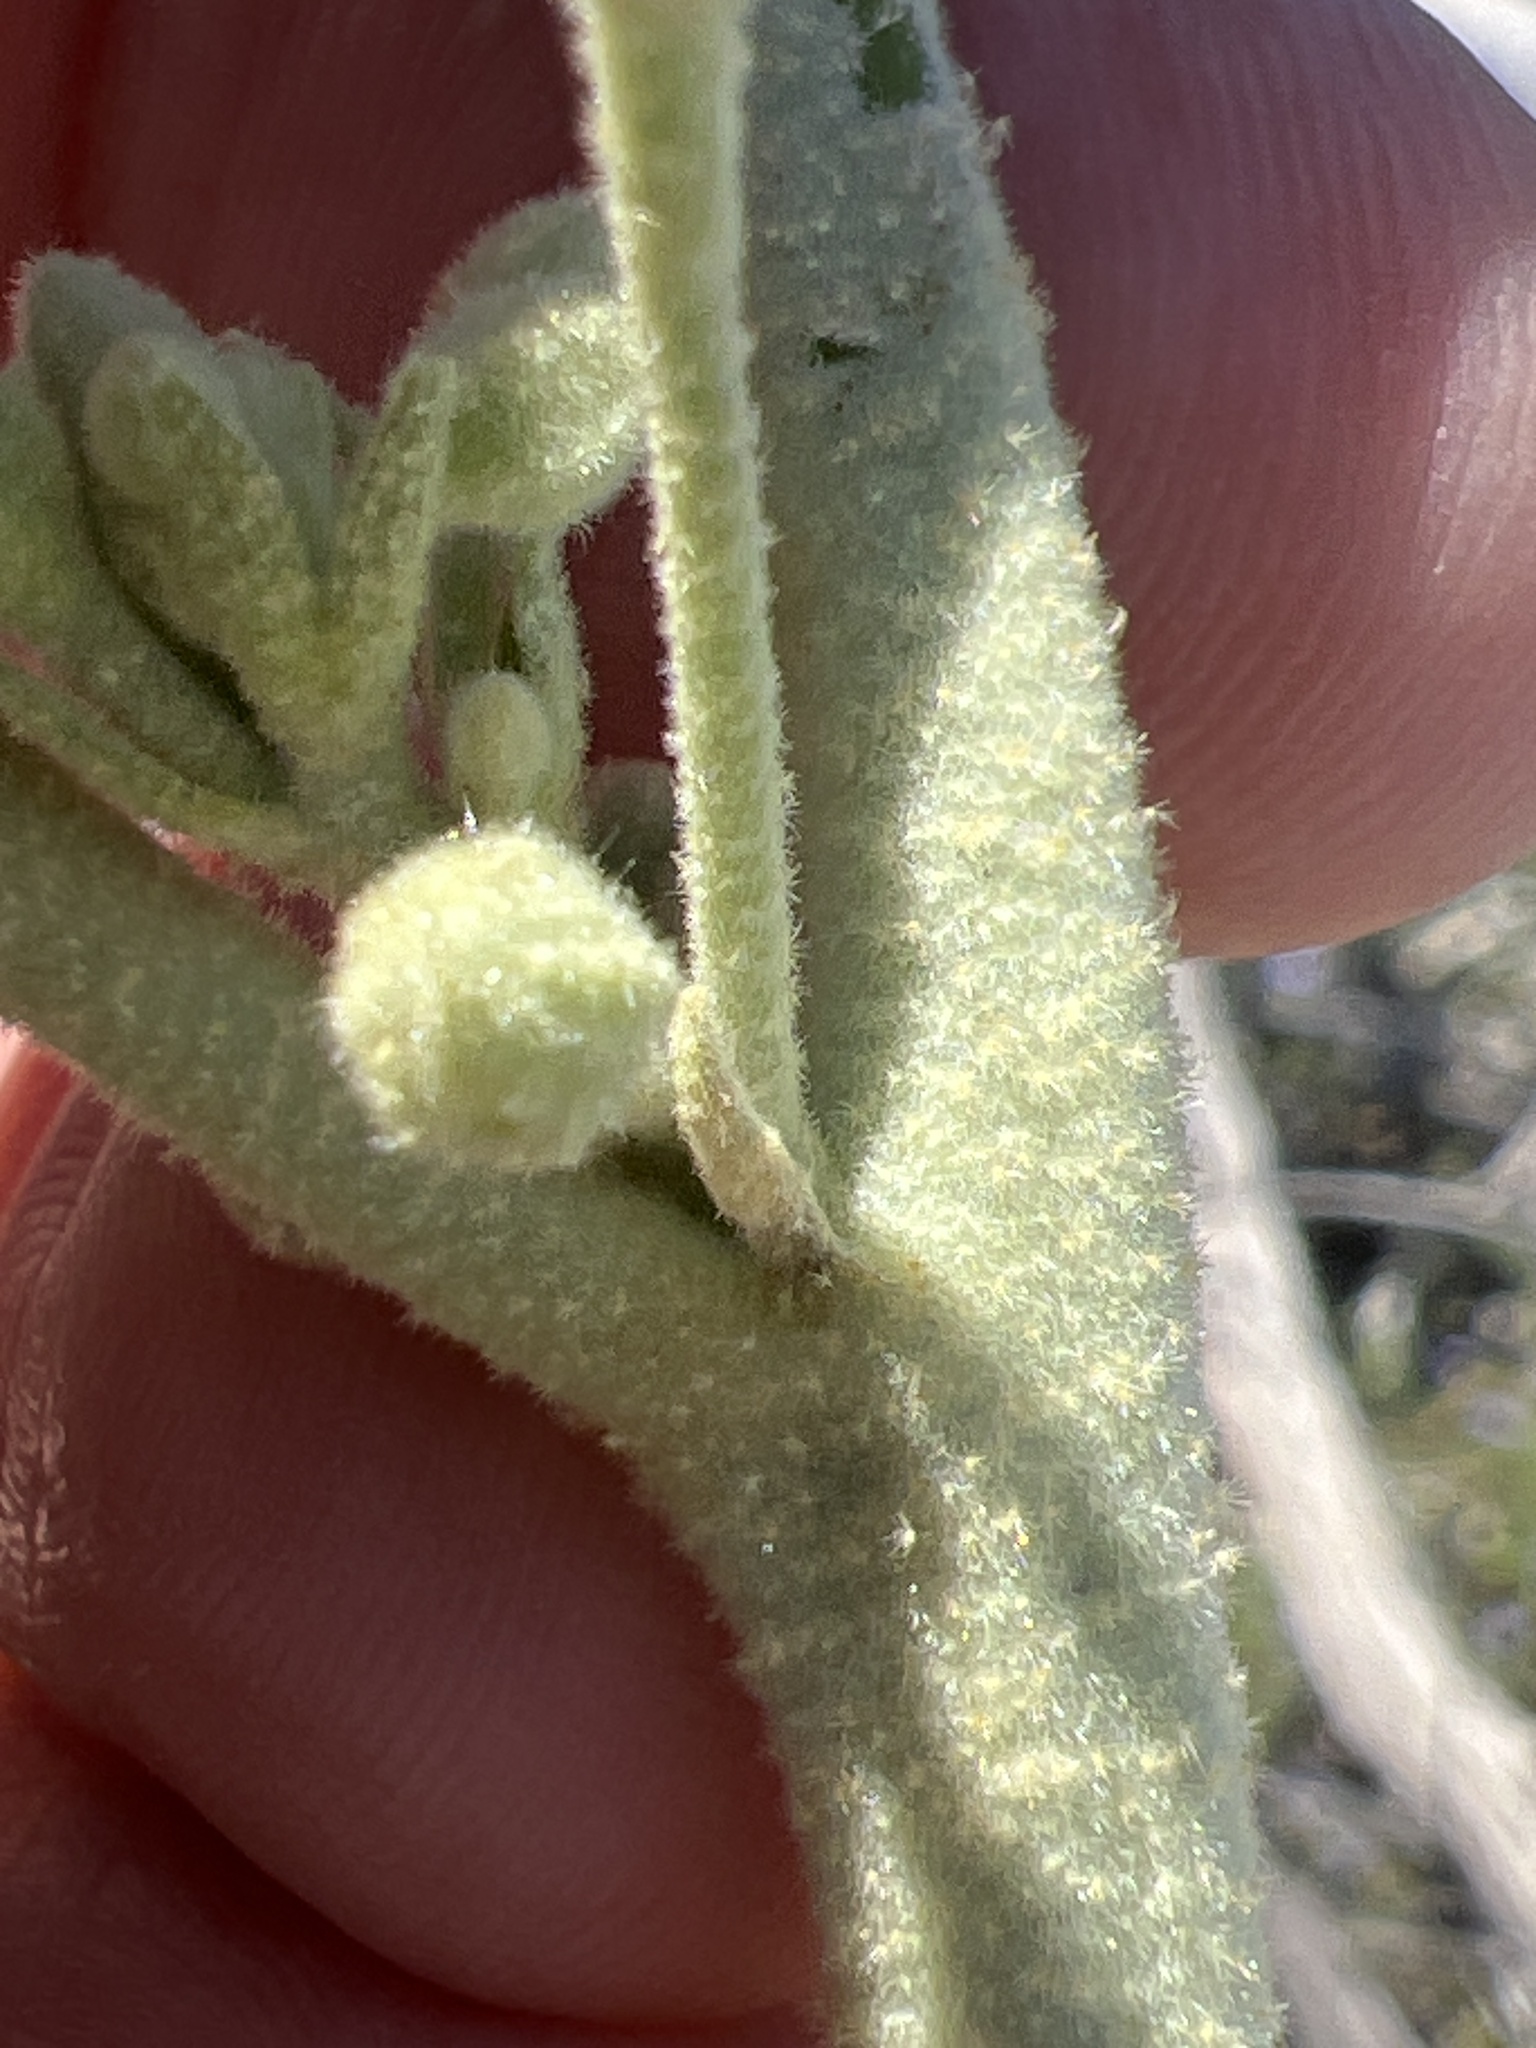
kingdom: Plantae
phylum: Tracheophyta
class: Magnoliopsida
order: Malvales
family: Malvaceae
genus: Horsfordia
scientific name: Horsfordia newberryi
